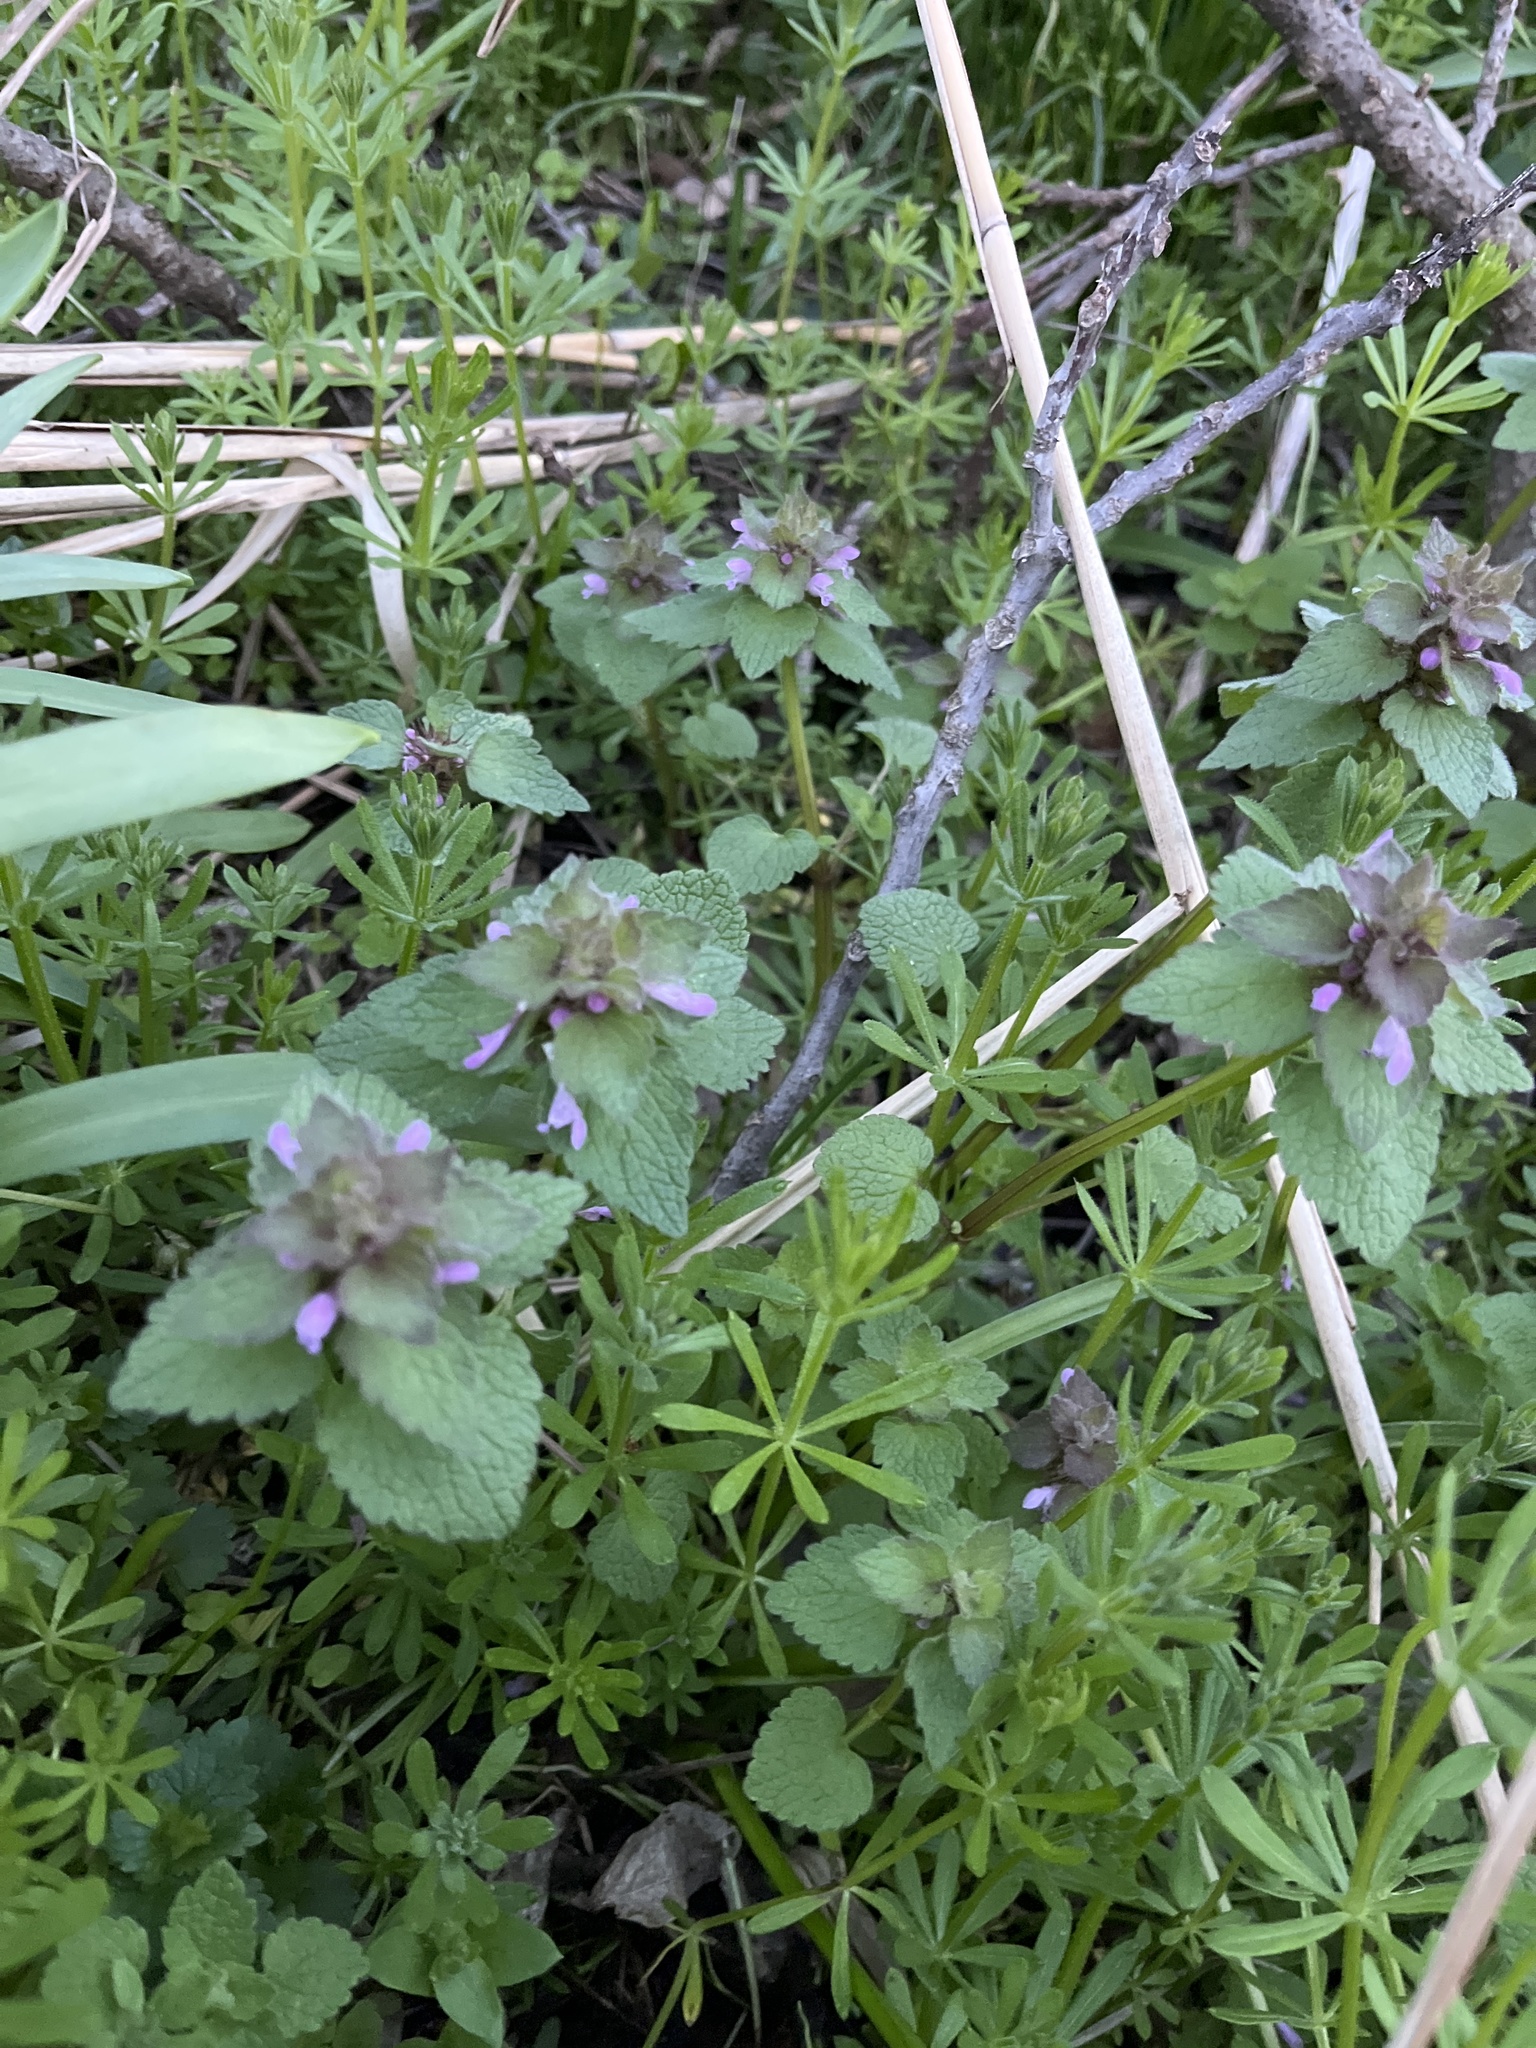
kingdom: Plantae
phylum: Tracheophyta
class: Magnoliopsida
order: Lamiales
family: Lamiaceae
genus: Lamium
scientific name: Lamium purpureum
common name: Red dead-nettle
